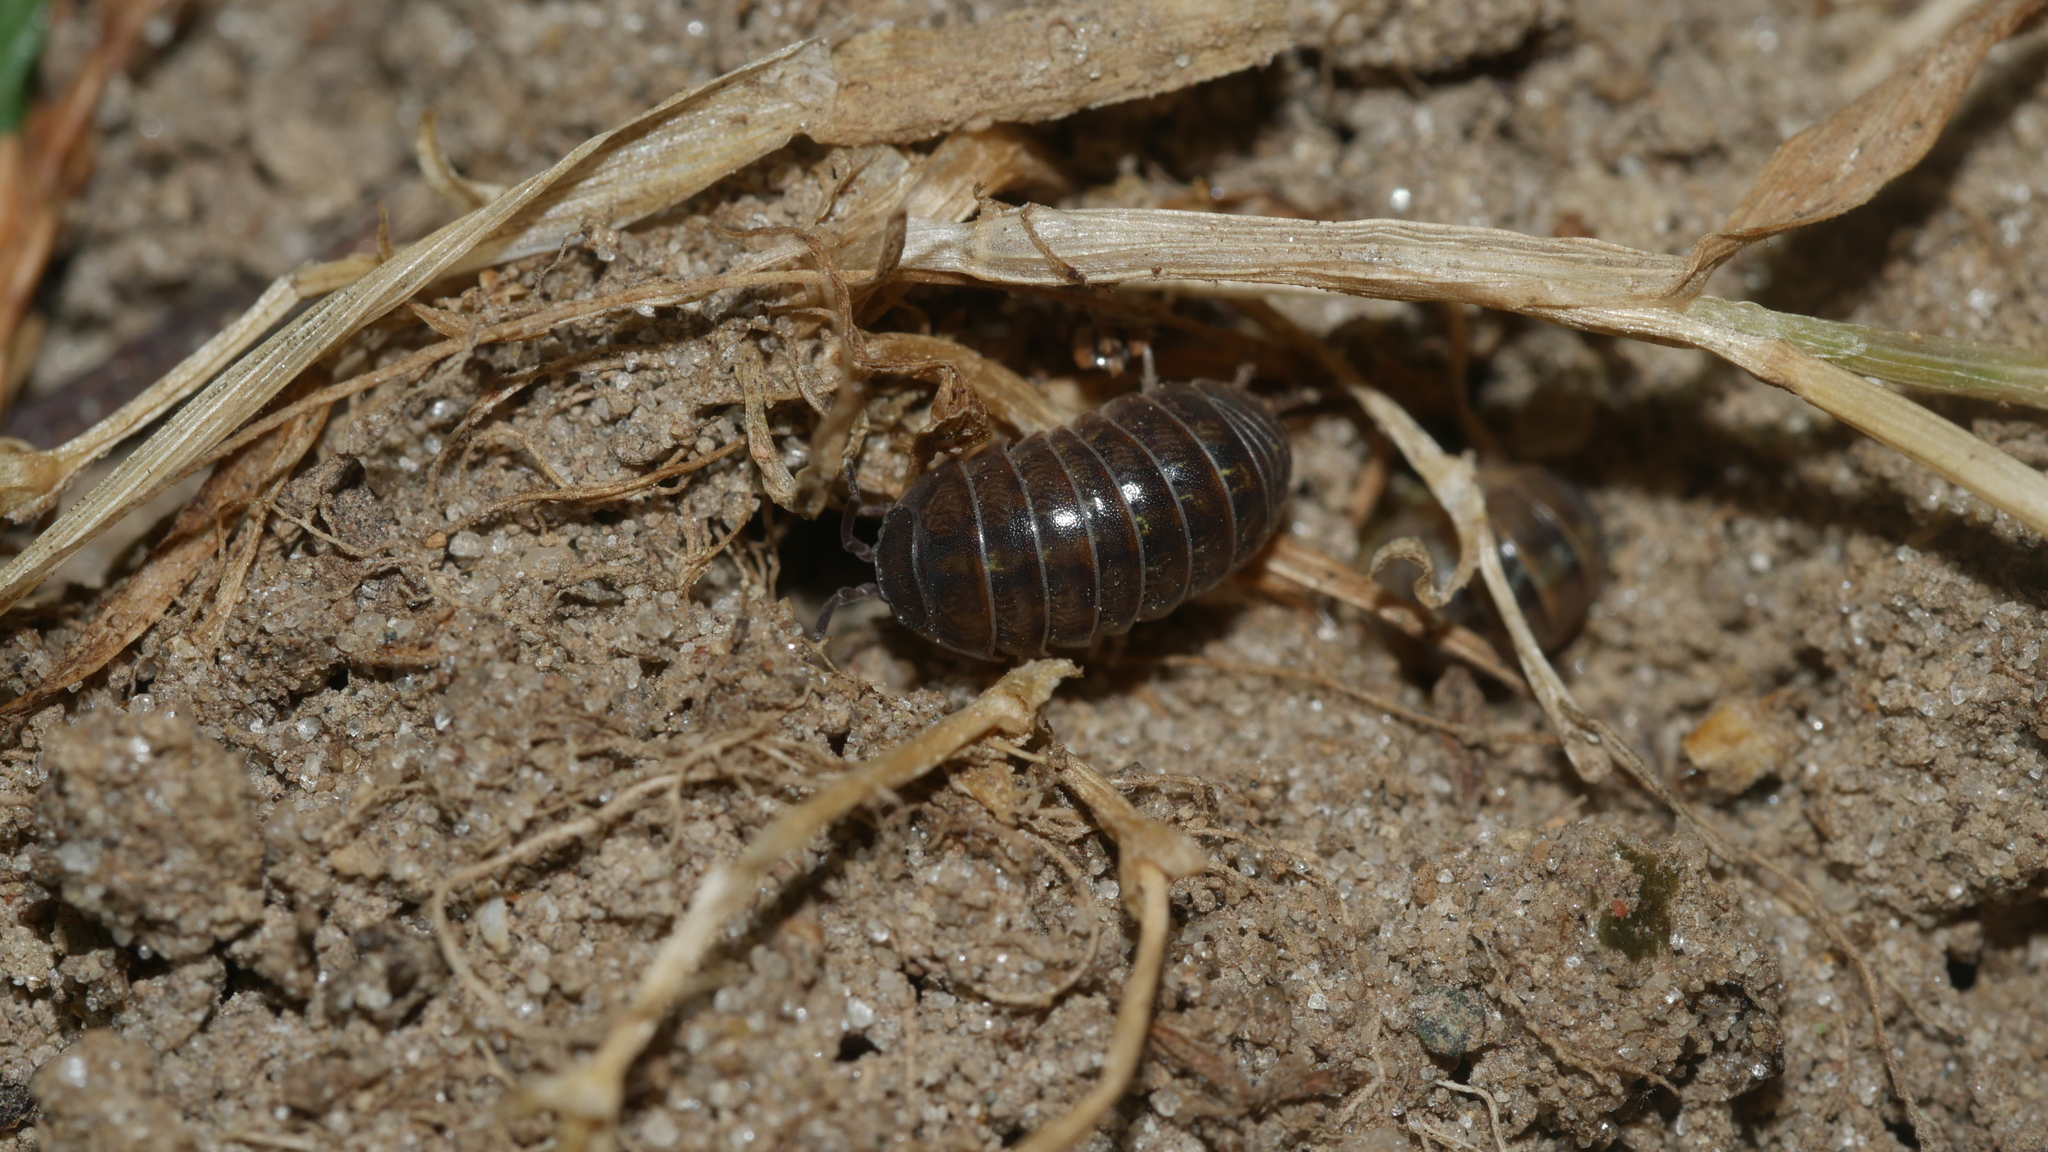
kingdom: Animalia
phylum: Arthropoda
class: Malacostraca
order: Isopoda
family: Armadillidiidae
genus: Armadillidium
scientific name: Armadillidium vulgare
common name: Common pill woodlouse
